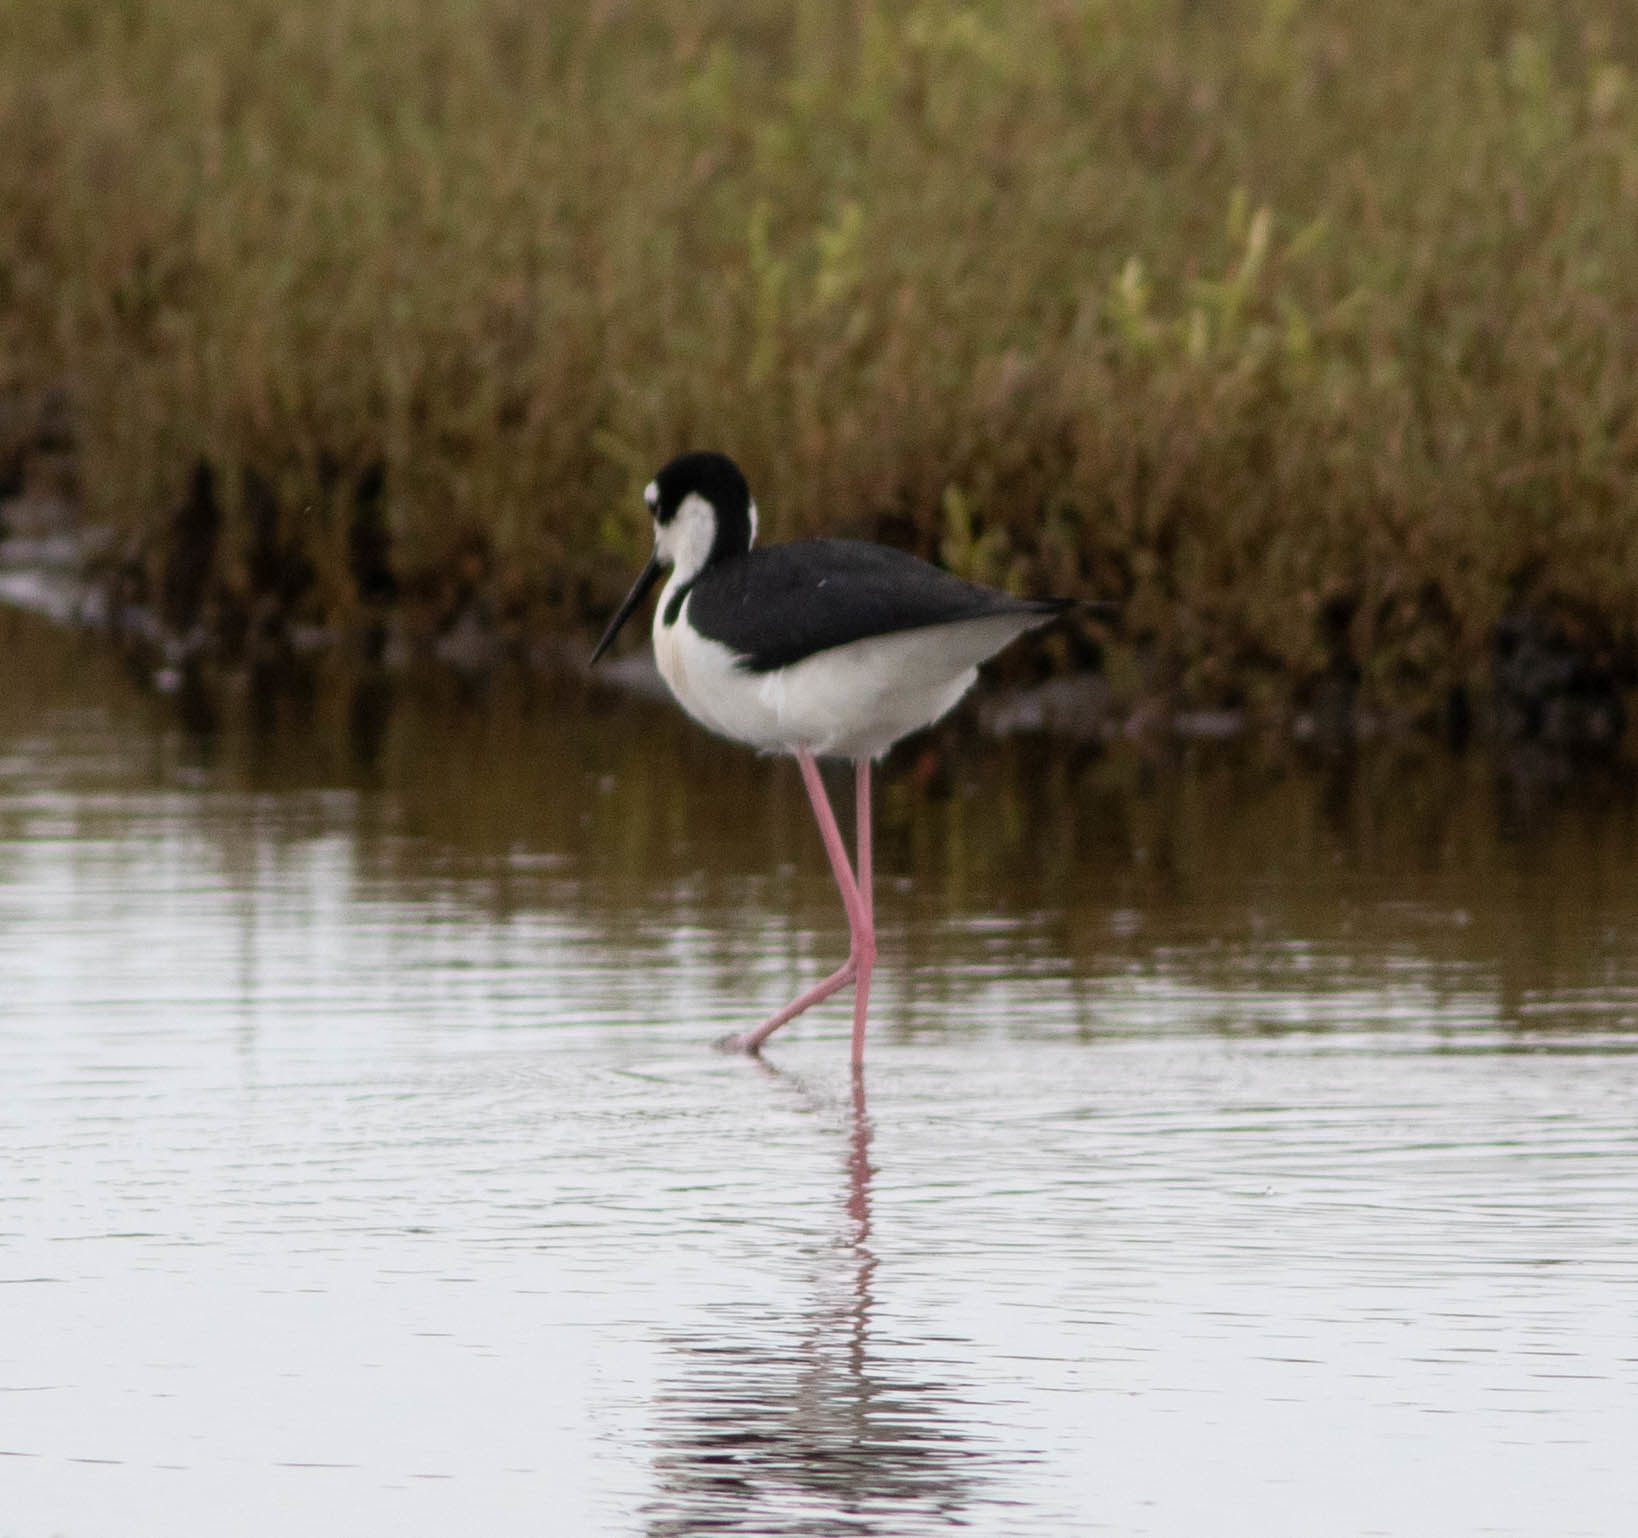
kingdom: Animalia
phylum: Chordata
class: Aves
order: Charadriiformes
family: Recurvirostridae
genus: Himantopus
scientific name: Himantopus mexicanus
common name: Black-necked stilt
